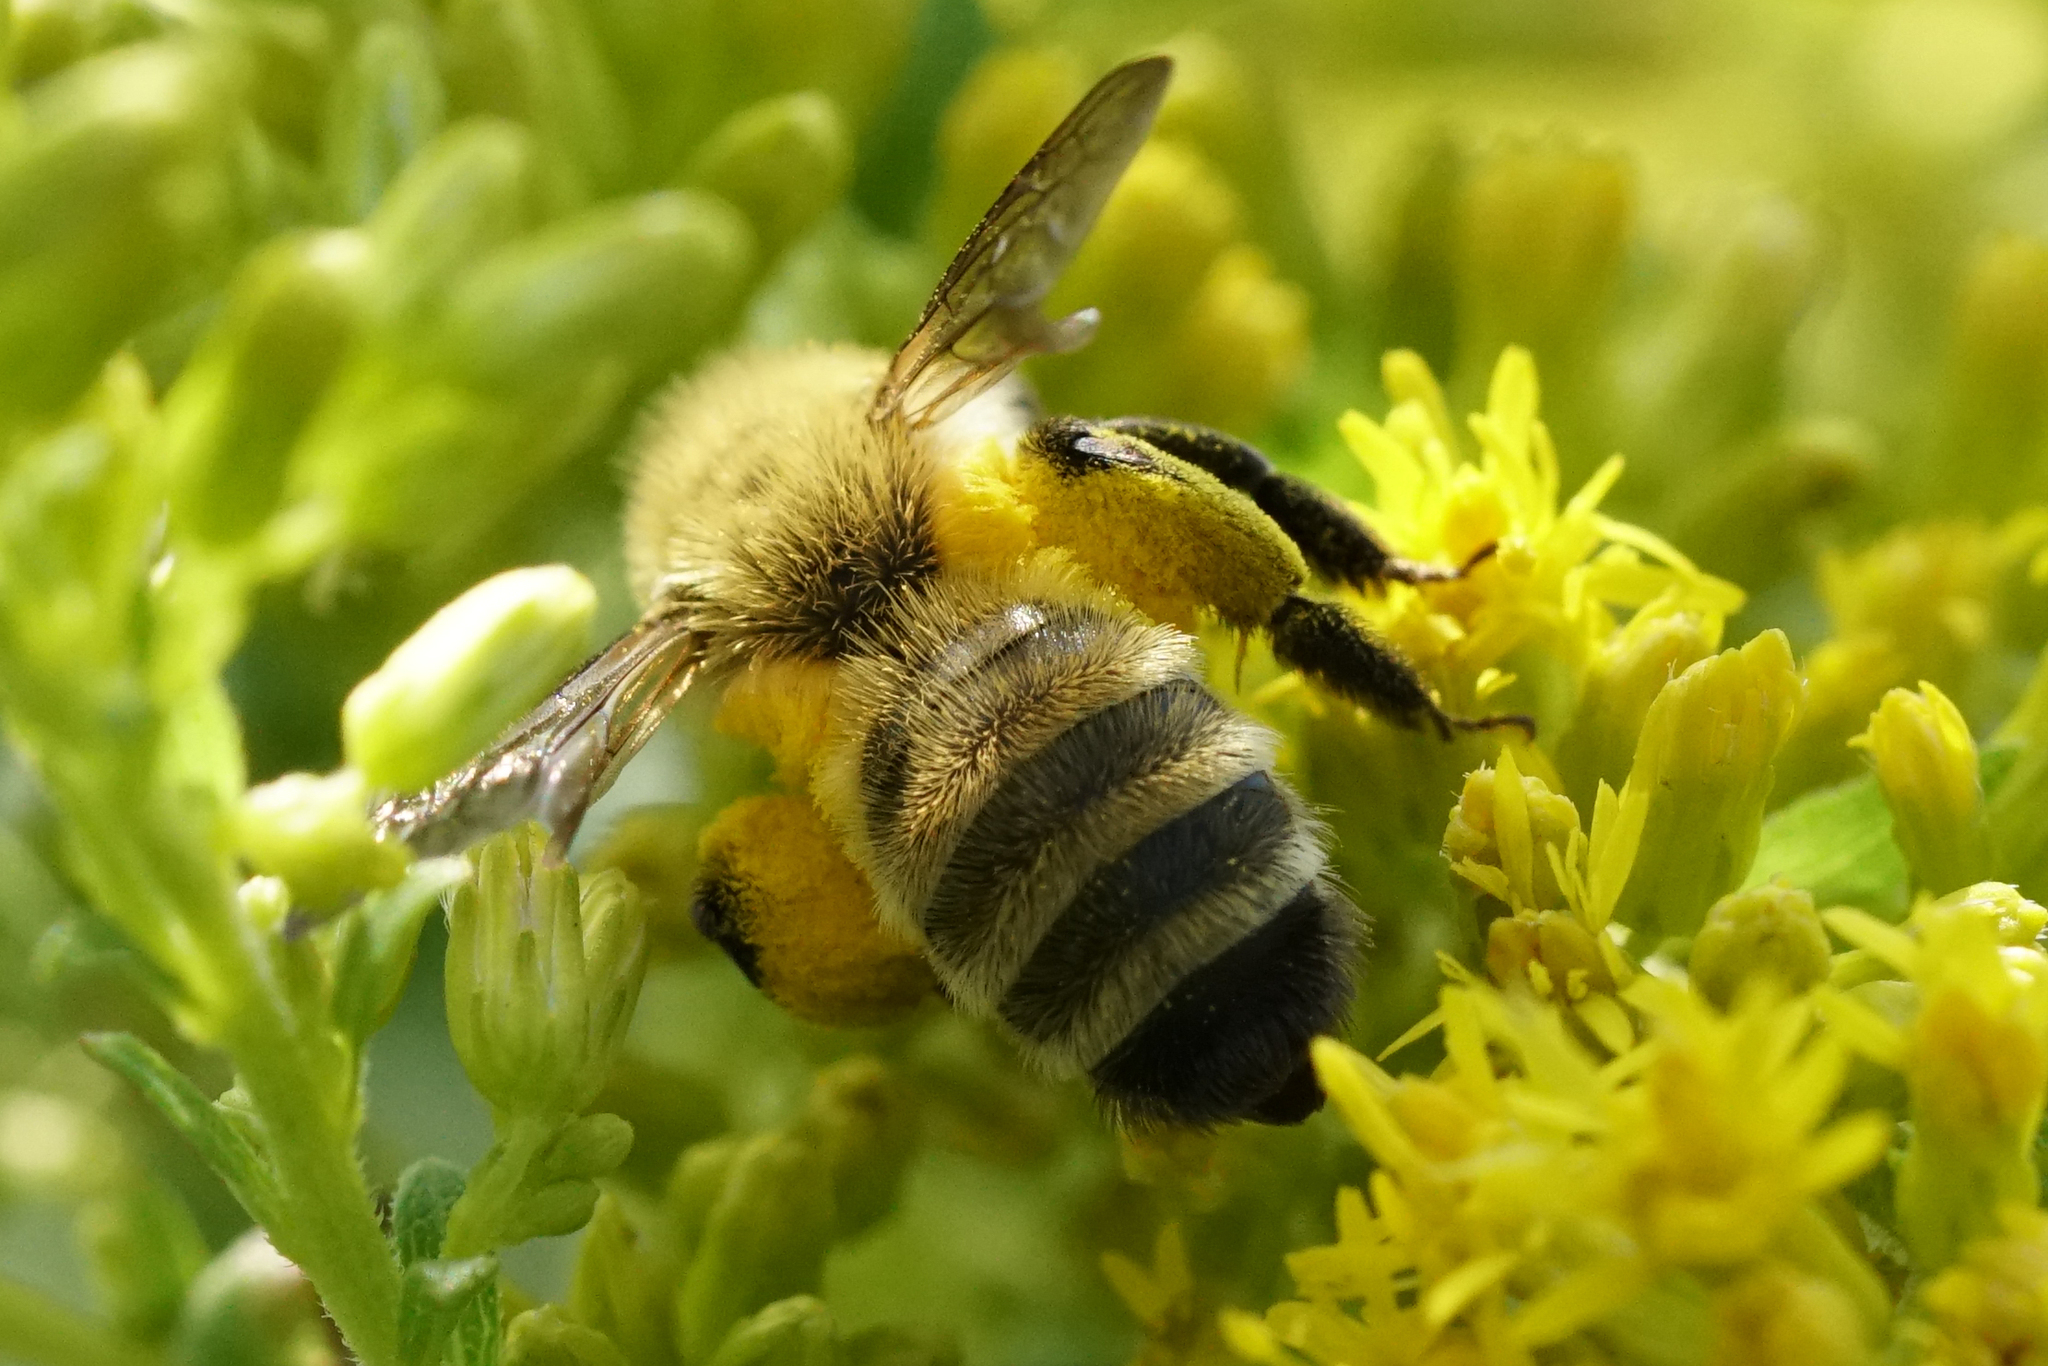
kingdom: Animalia
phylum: Arthropoda
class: Insecta
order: Hymenoptera
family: Andrenidae
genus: Andrena
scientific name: Andrena hirticincta
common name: Hairy-banded mining bee
